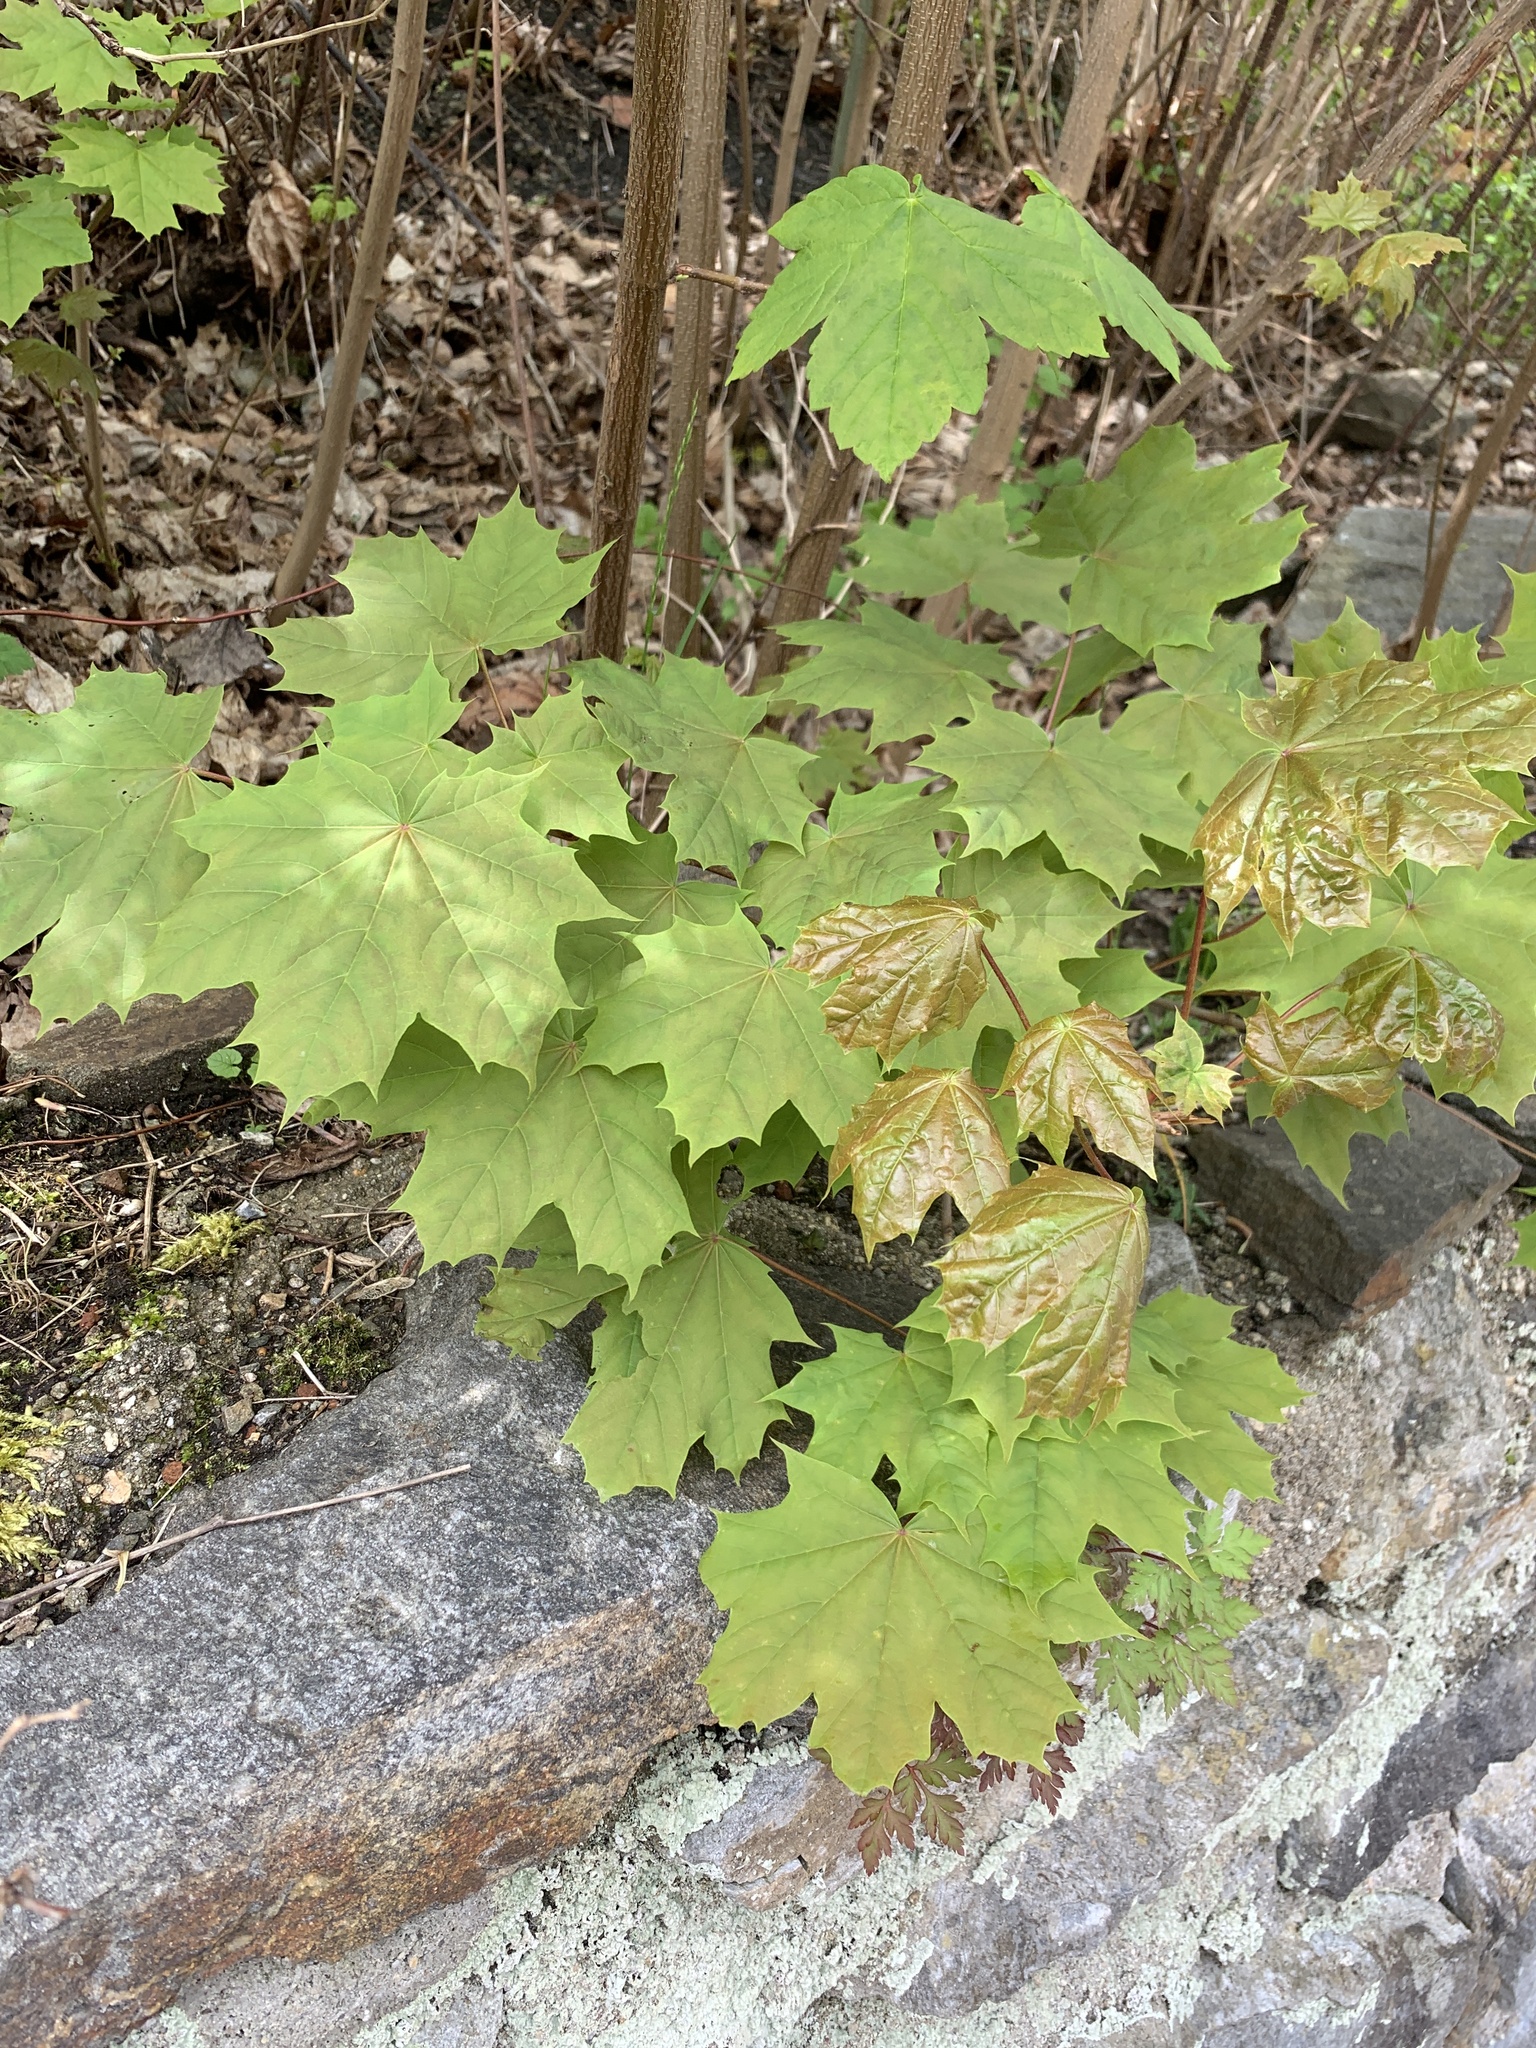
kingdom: Plantae
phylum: Tracheophyta
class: Magnoliopsida
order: Sapindales
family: Sapindaceae
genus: Acer
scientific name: Acer platanoides
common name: Norway maple
